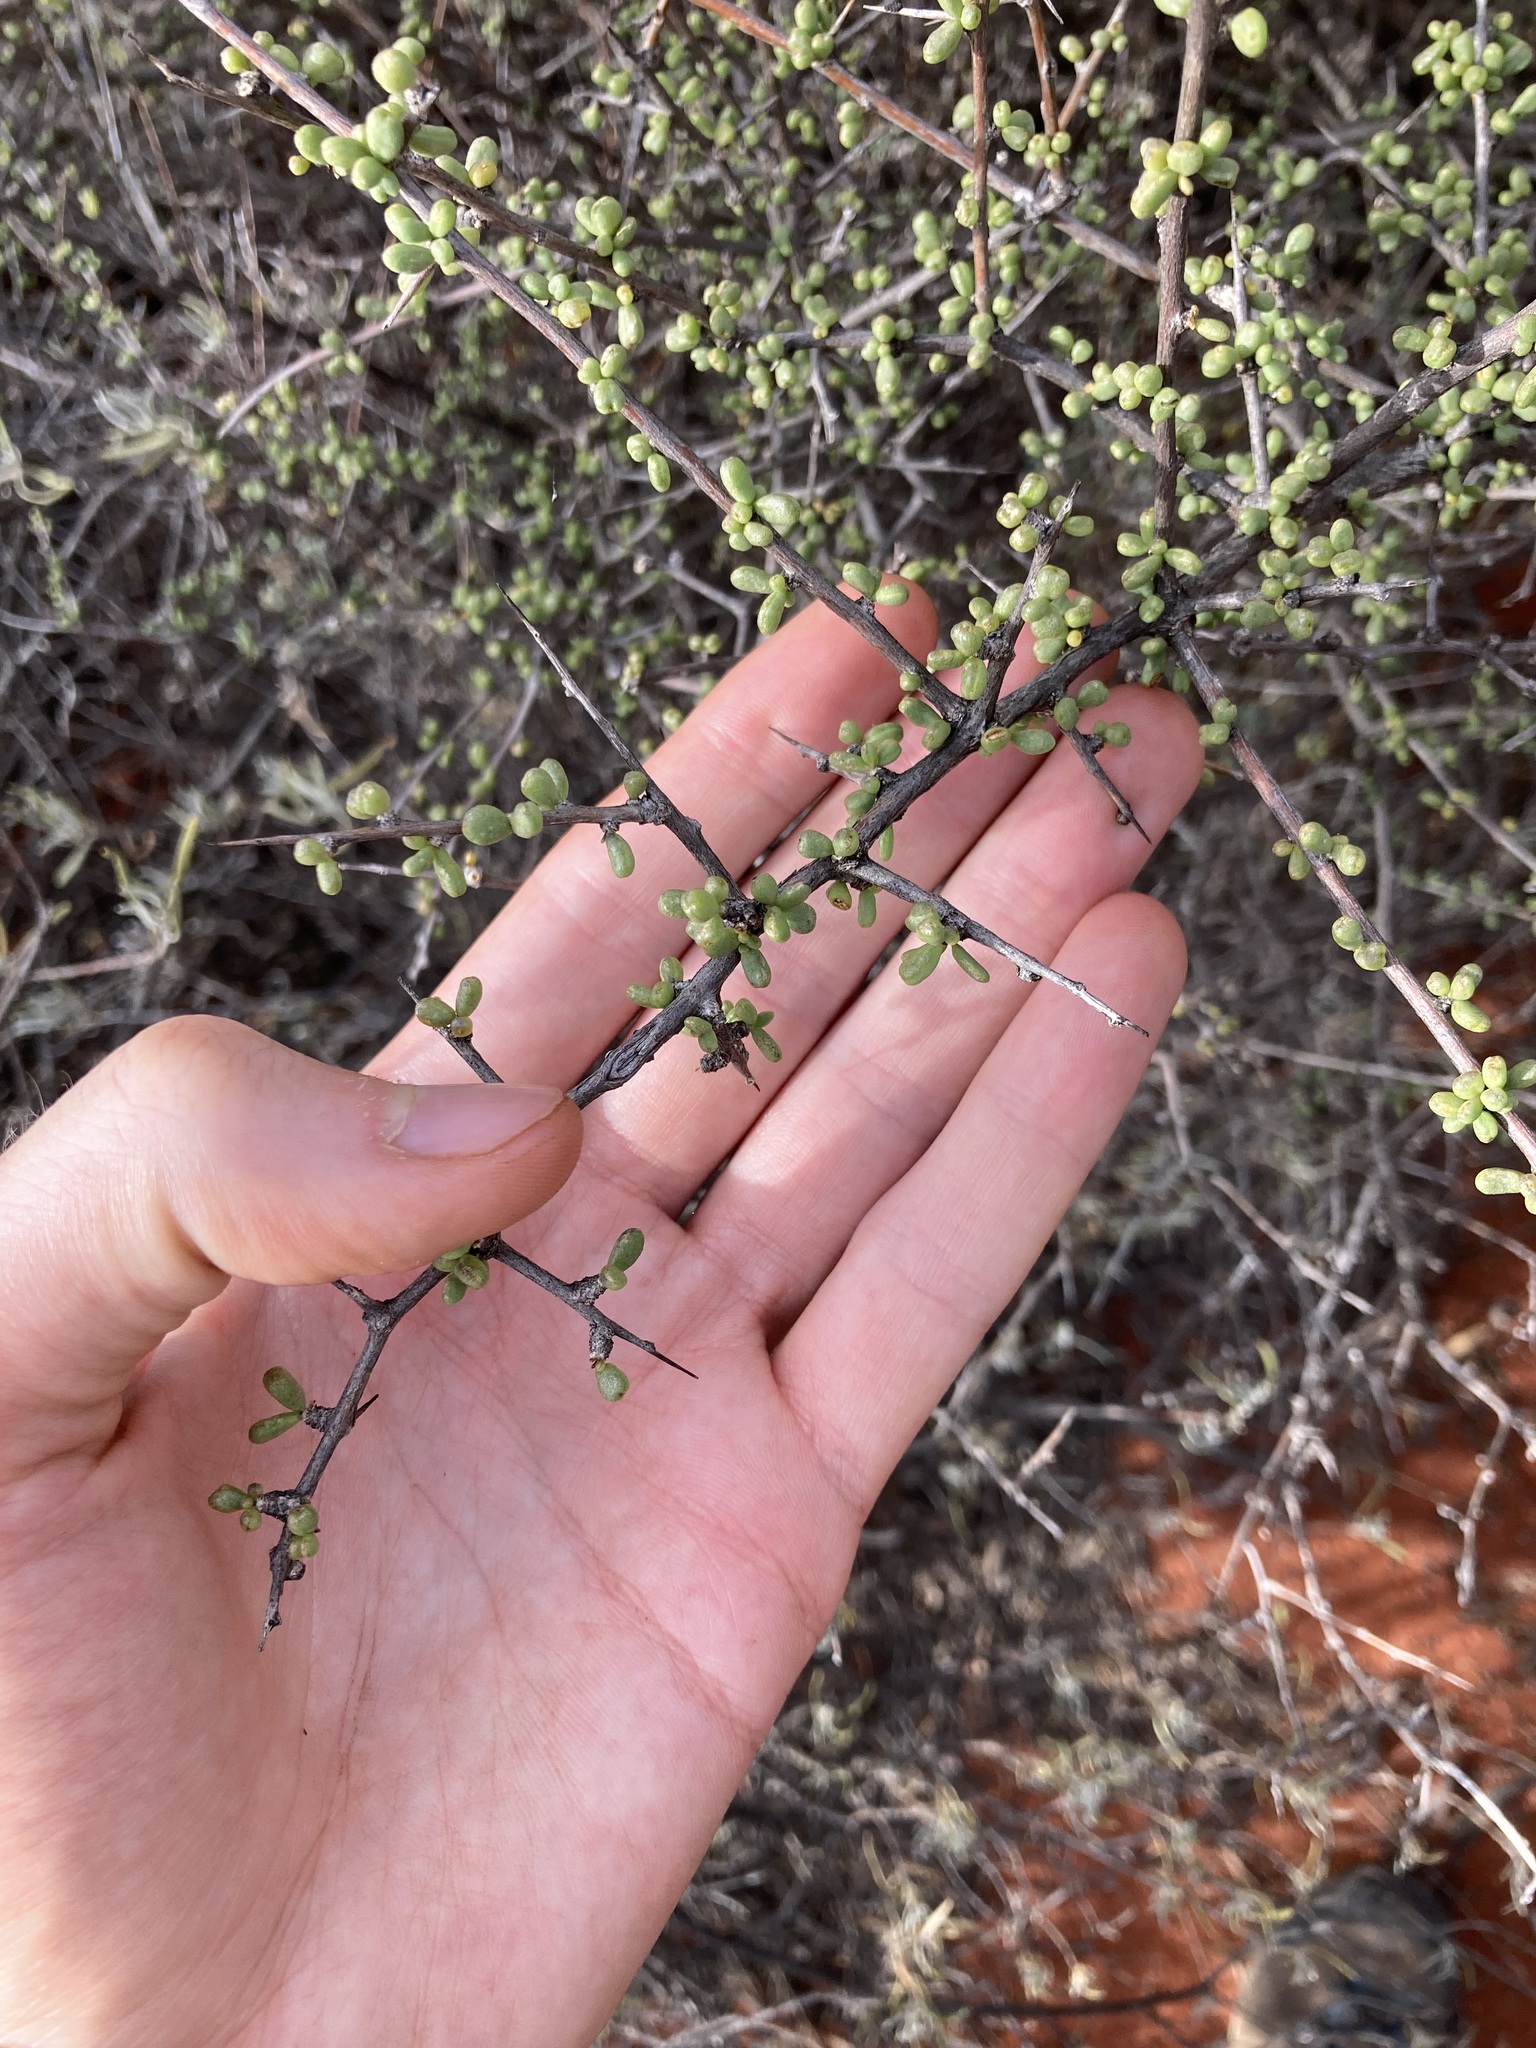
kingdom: Plantae
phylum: Tracheophyta
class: Magnoliopsida
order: Solanales
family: Solanaceae
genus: Lycium
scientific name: Lycium australe
